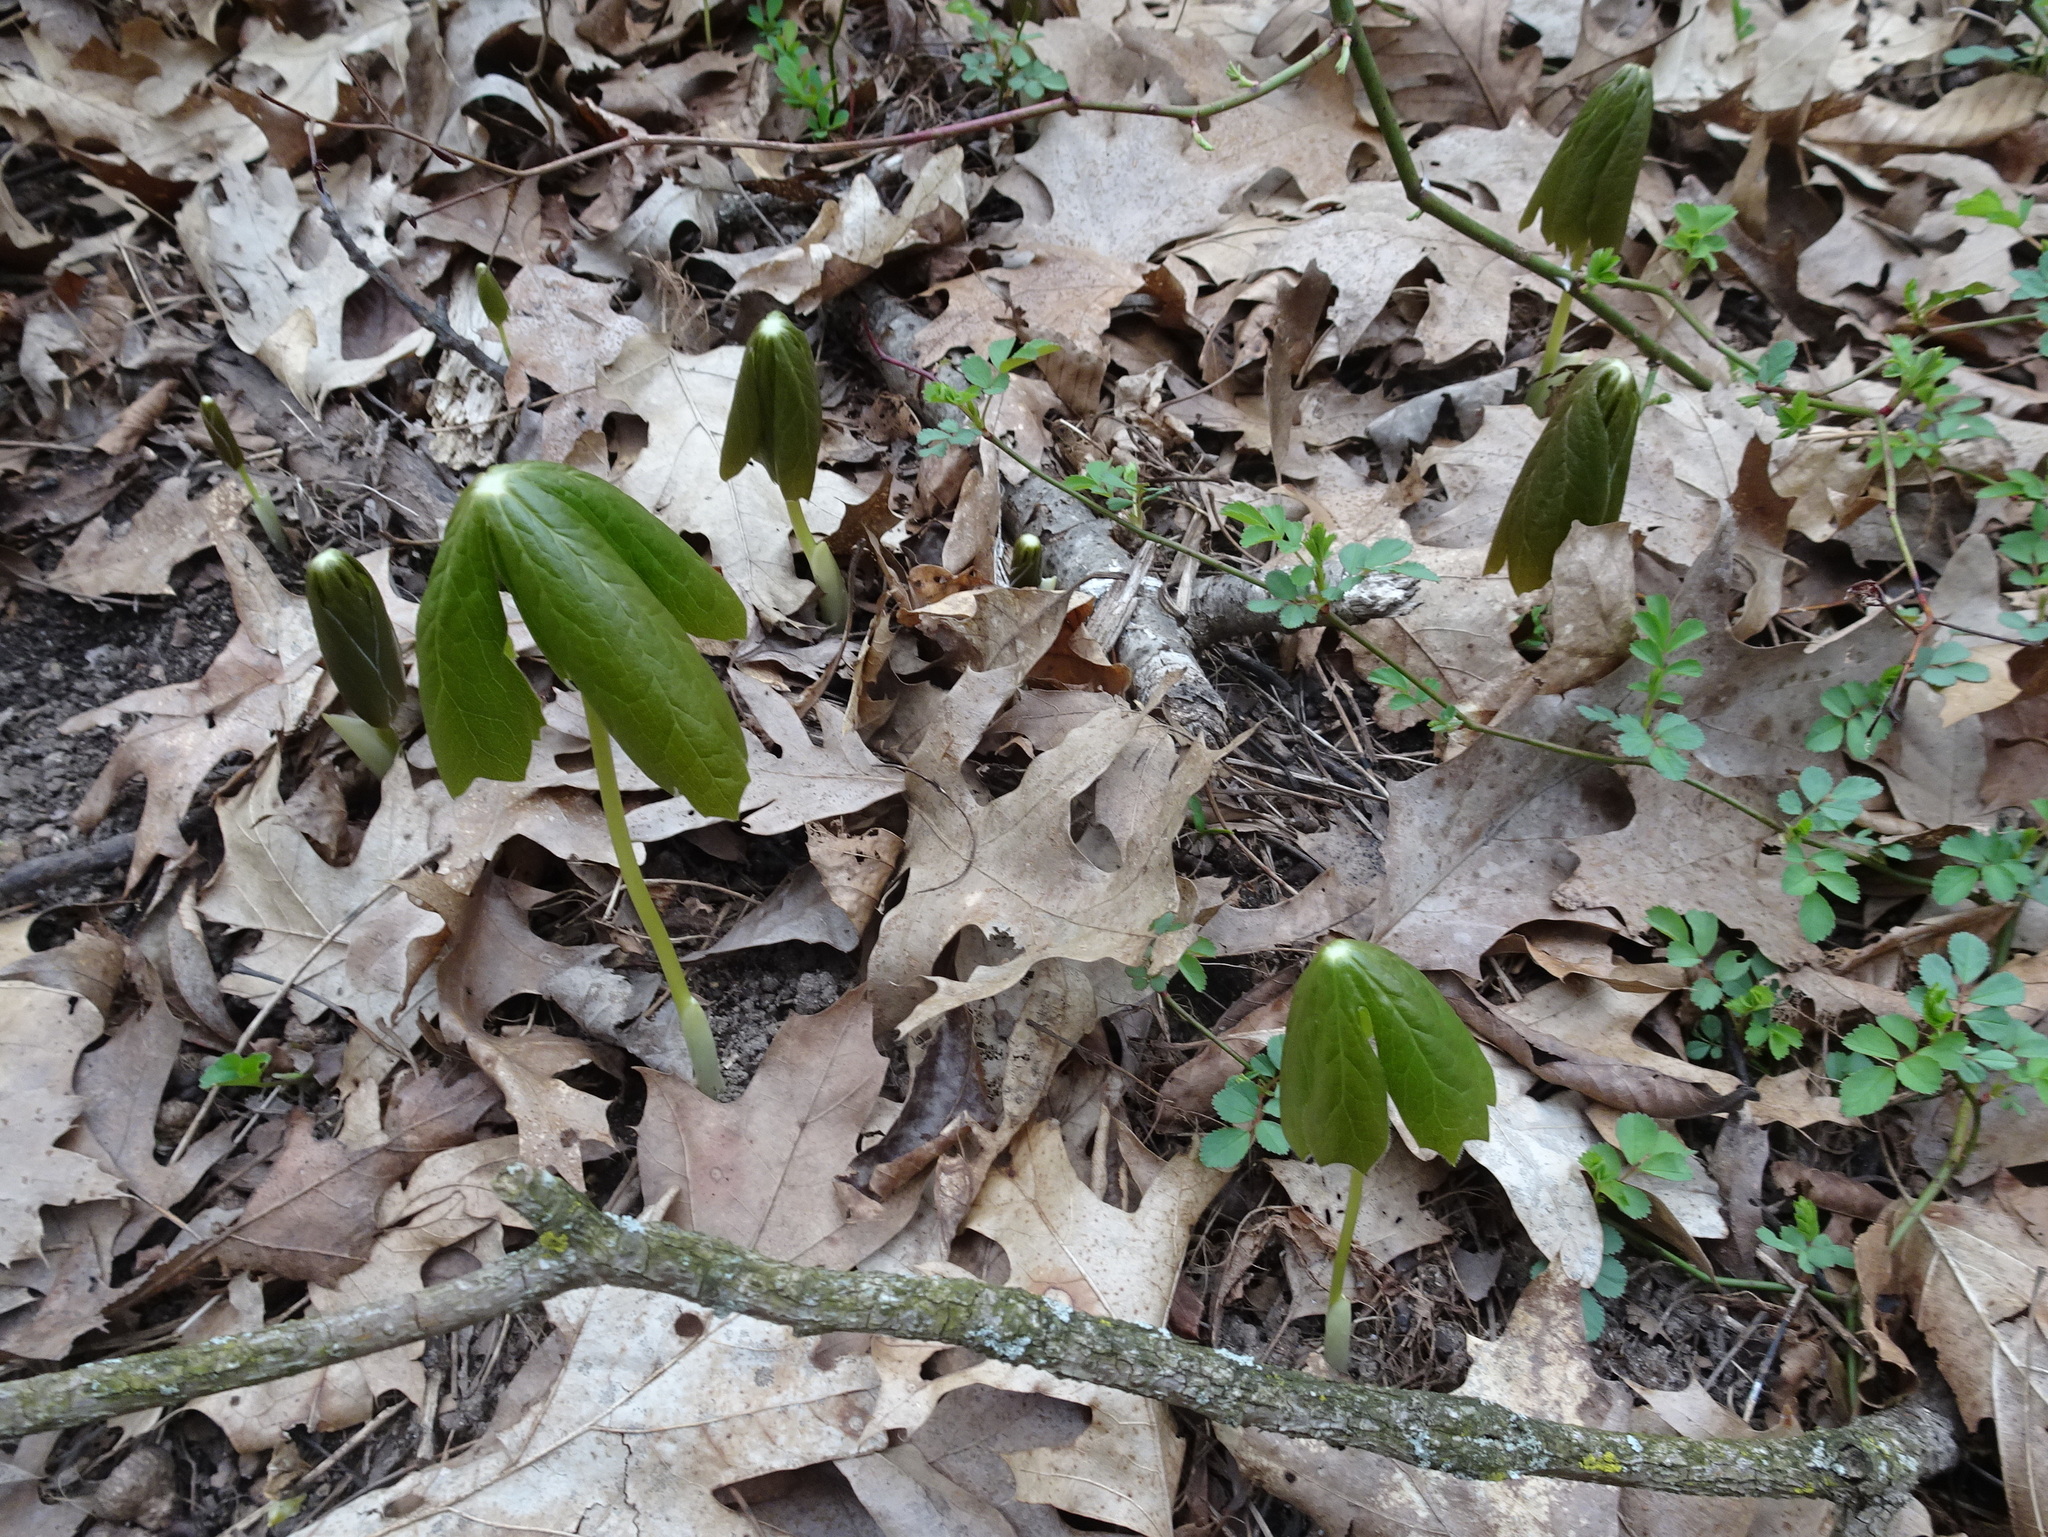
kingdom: Plantae
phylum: Tracheophyta
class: Magnoliopsida
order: Ranunculales
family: Berberidaceae
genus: Podophyllum
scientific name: Podophyllum peltatum
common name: Wild mandrake
